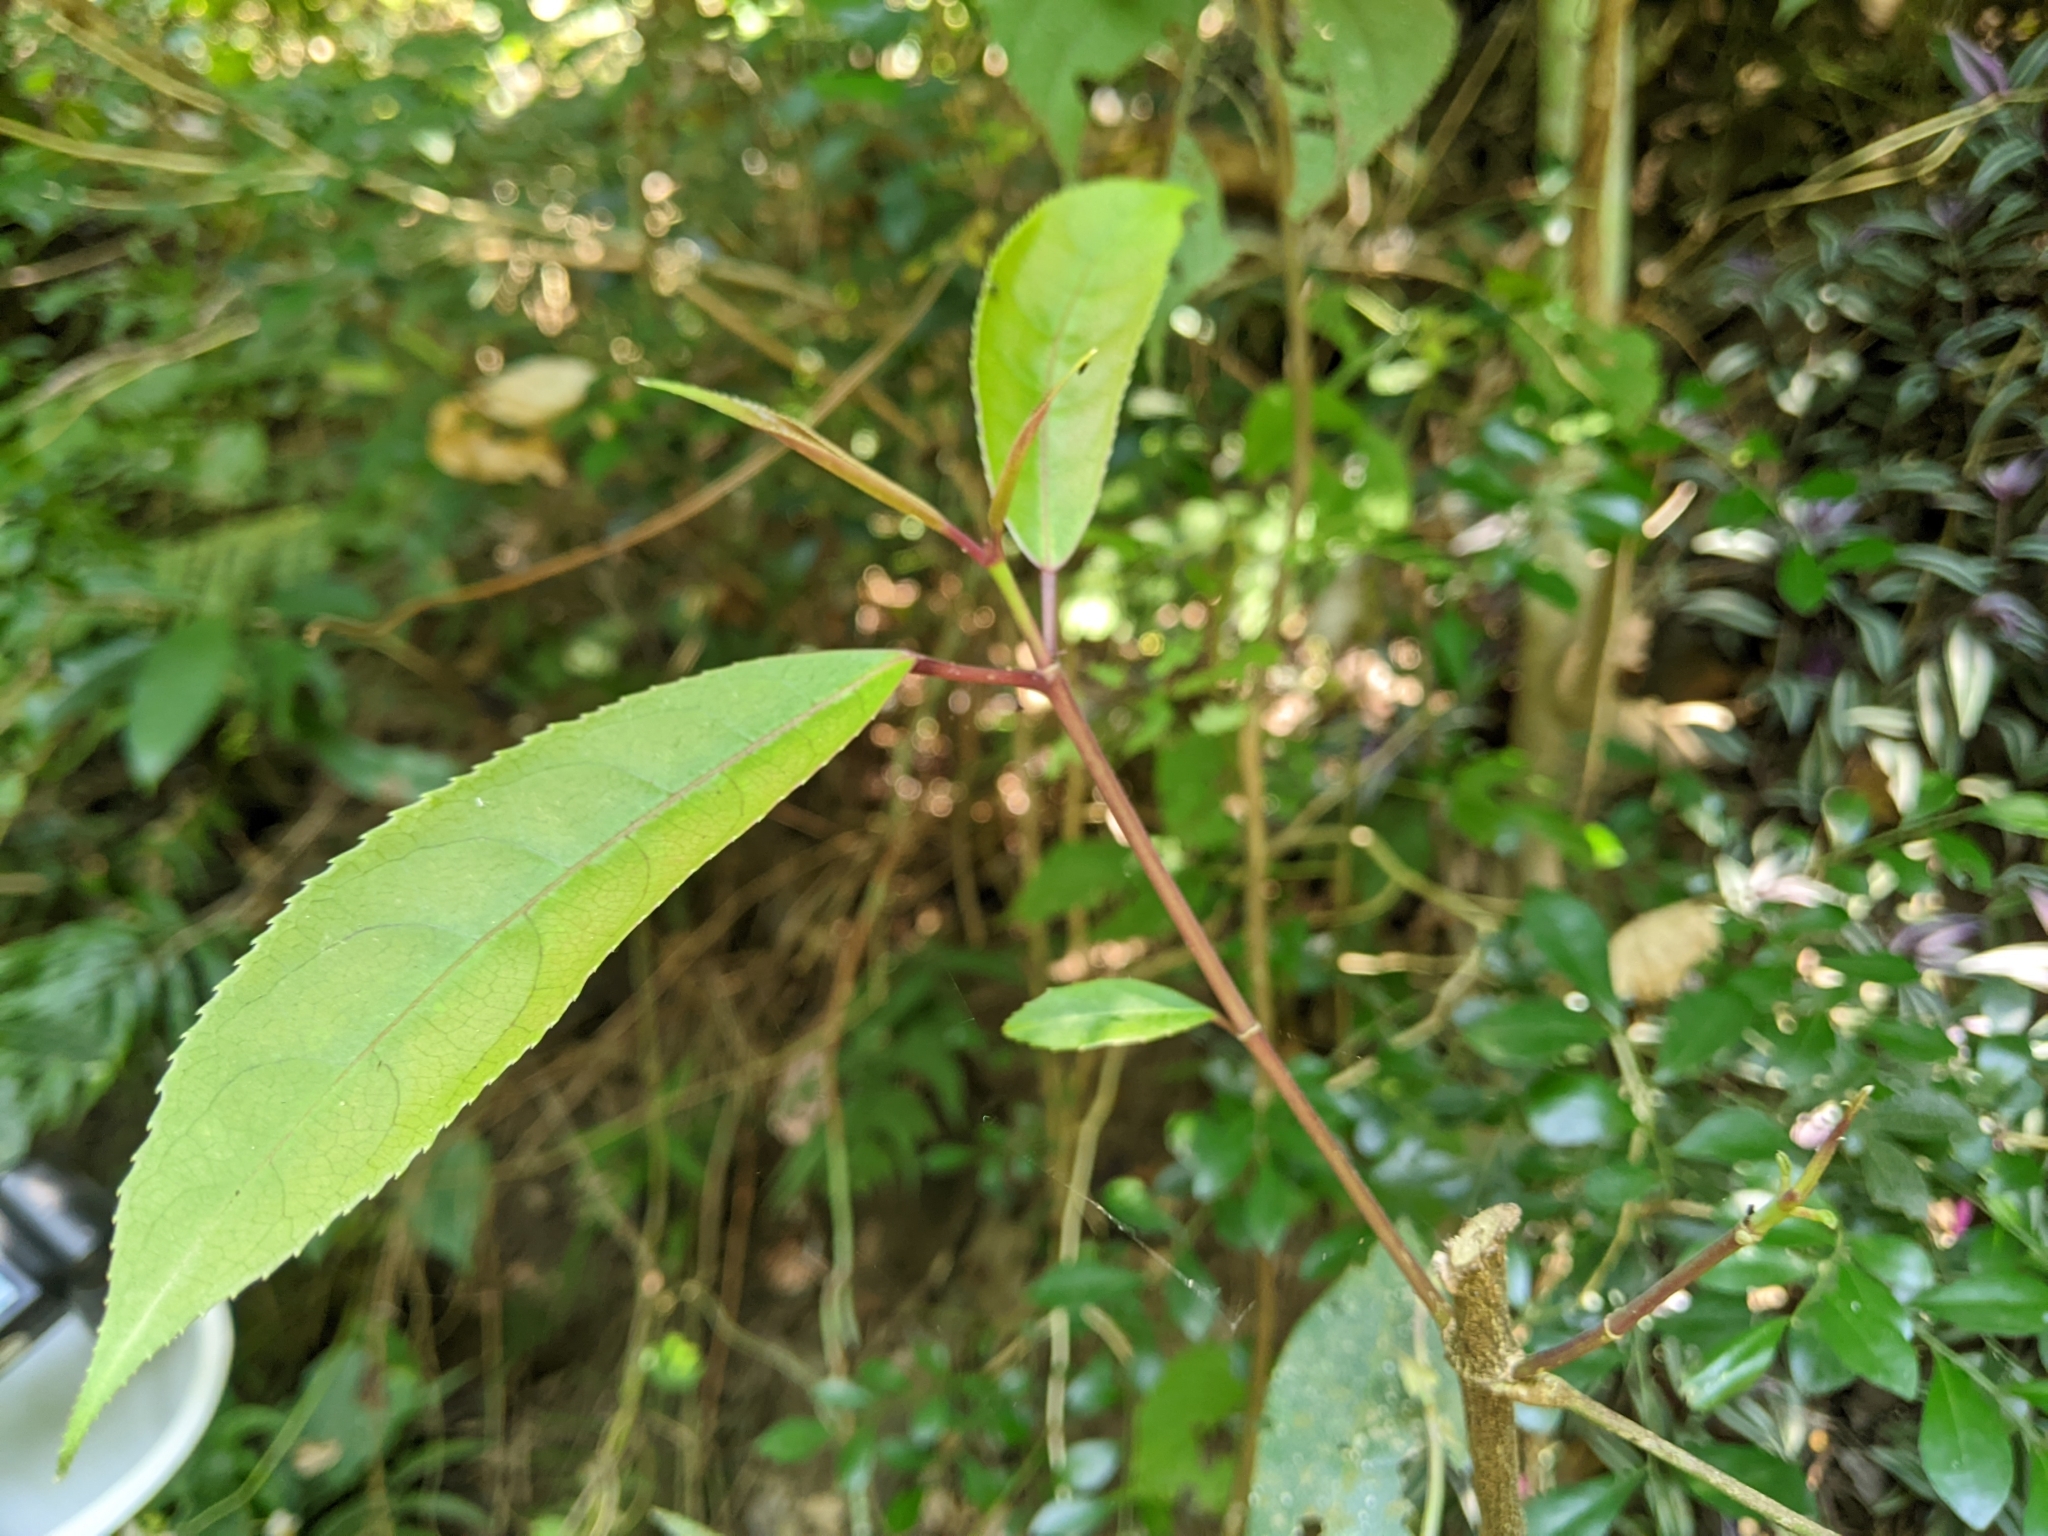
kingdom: Plantae
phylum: Tracheophyta
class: Magnoliopsida
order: Crossosomatales
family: Staphyleaceae
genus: Turpinia
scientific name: Turpinia formosana
